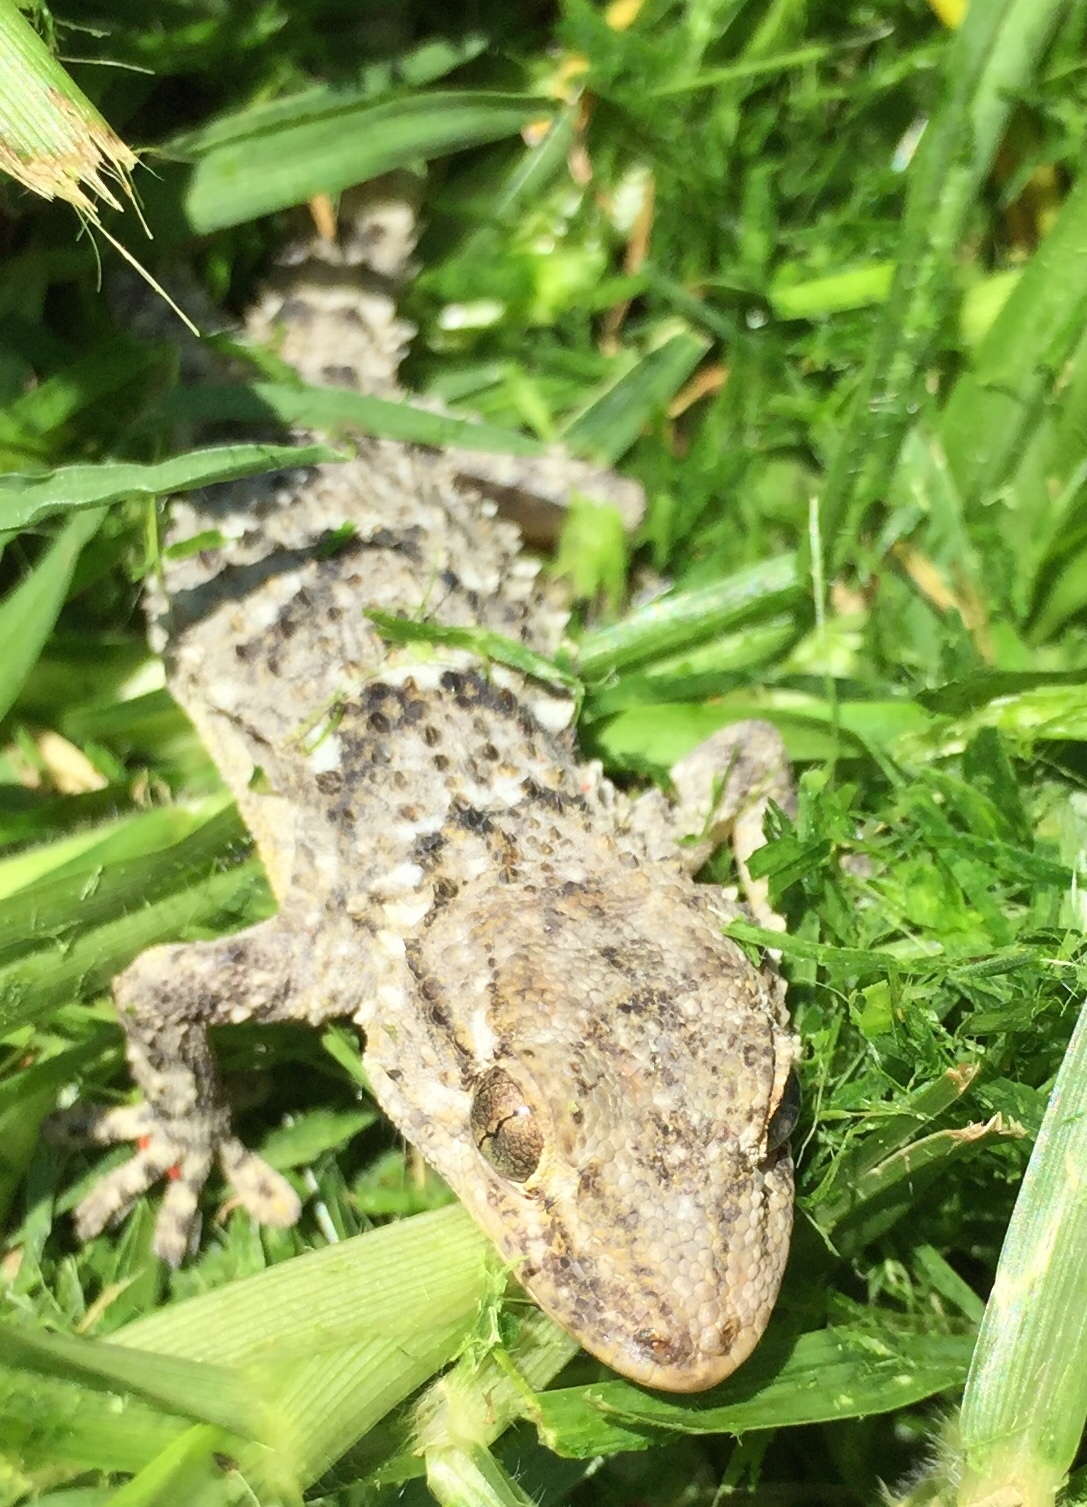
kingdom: Animalia
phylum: Chordata
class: Squamata
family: Phyllodactylidae
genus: Tarentola
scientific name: Tarentola mauritanica
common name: Moorish gecko
